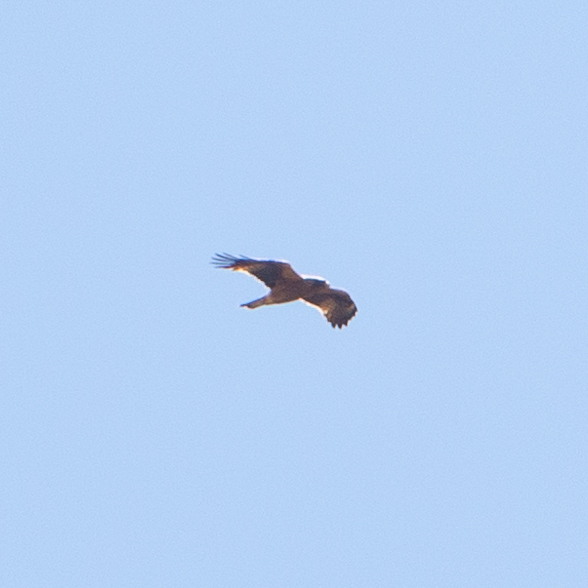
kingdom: Animalia
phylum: Chordata
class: Aves
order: Accipitriformes
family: Accipitridae
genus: Hieraaetus
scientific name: Hieraaetus pennatus
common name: Booted eagle
